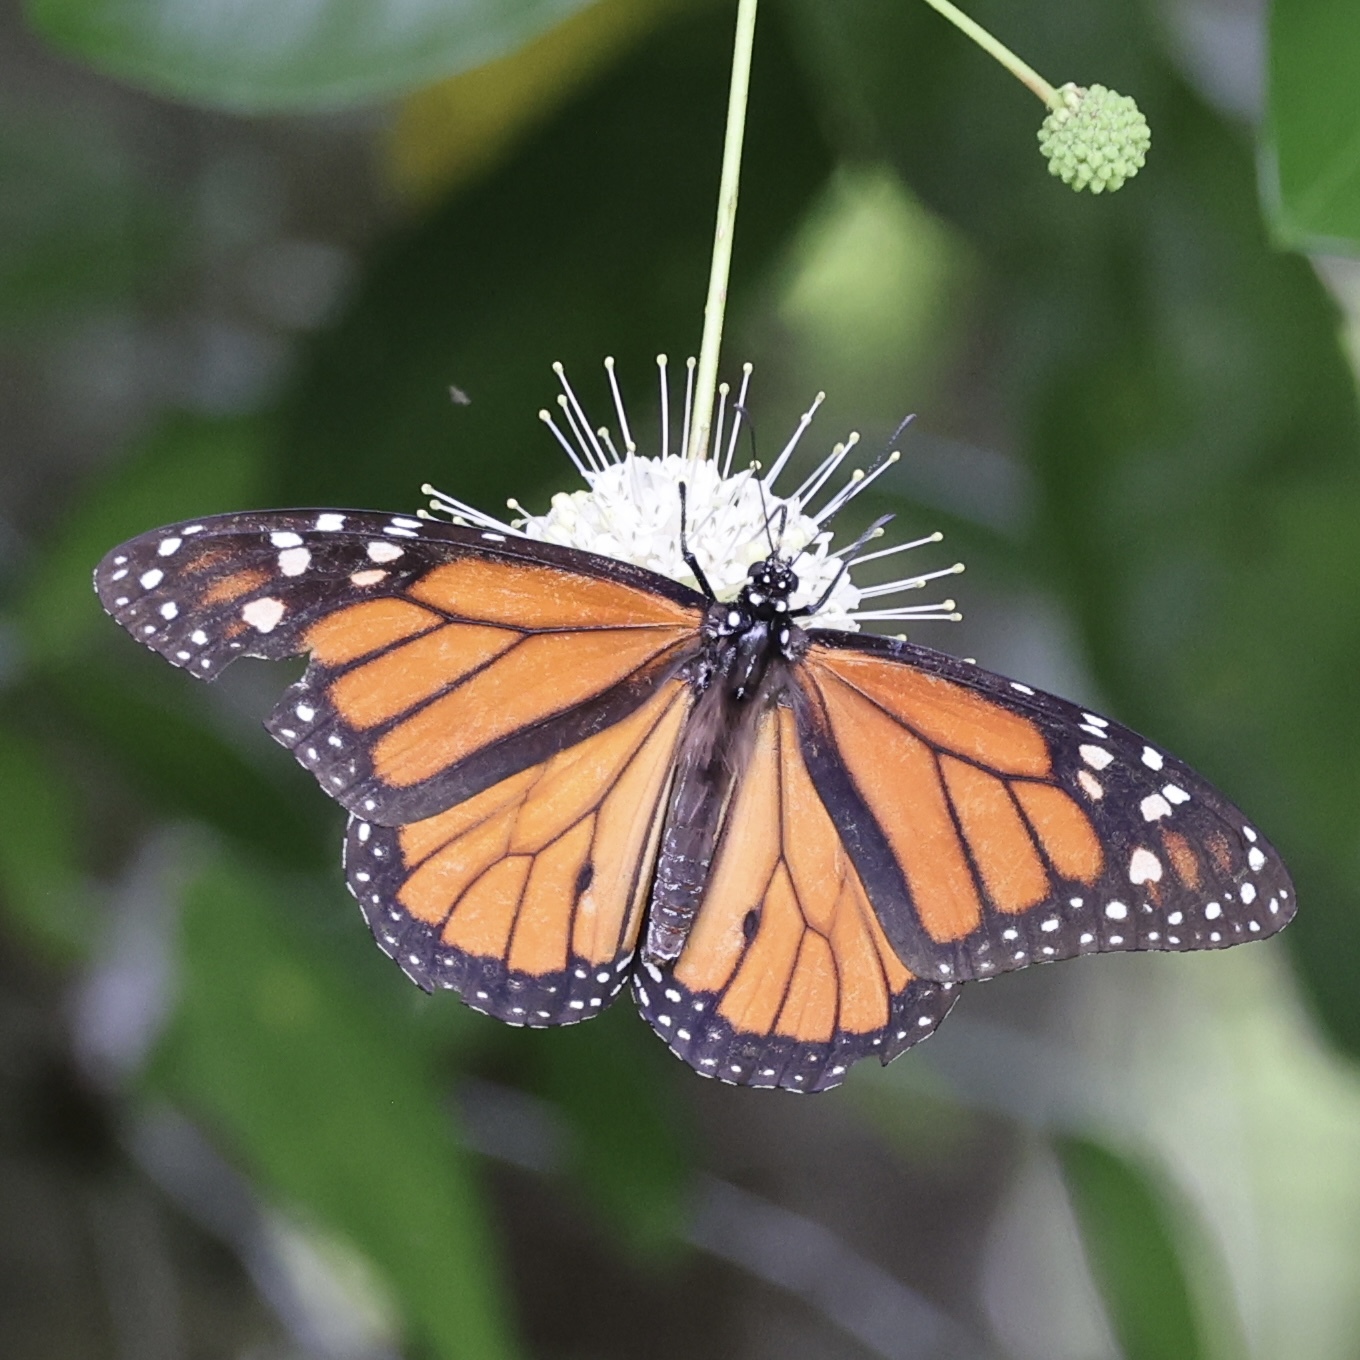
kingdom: Animalia
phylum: Arthropoda
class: Insecta
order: Lepidoptera
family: Nymphalidae
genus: Danaus
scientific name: Danaus plexippus
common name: Monarch
